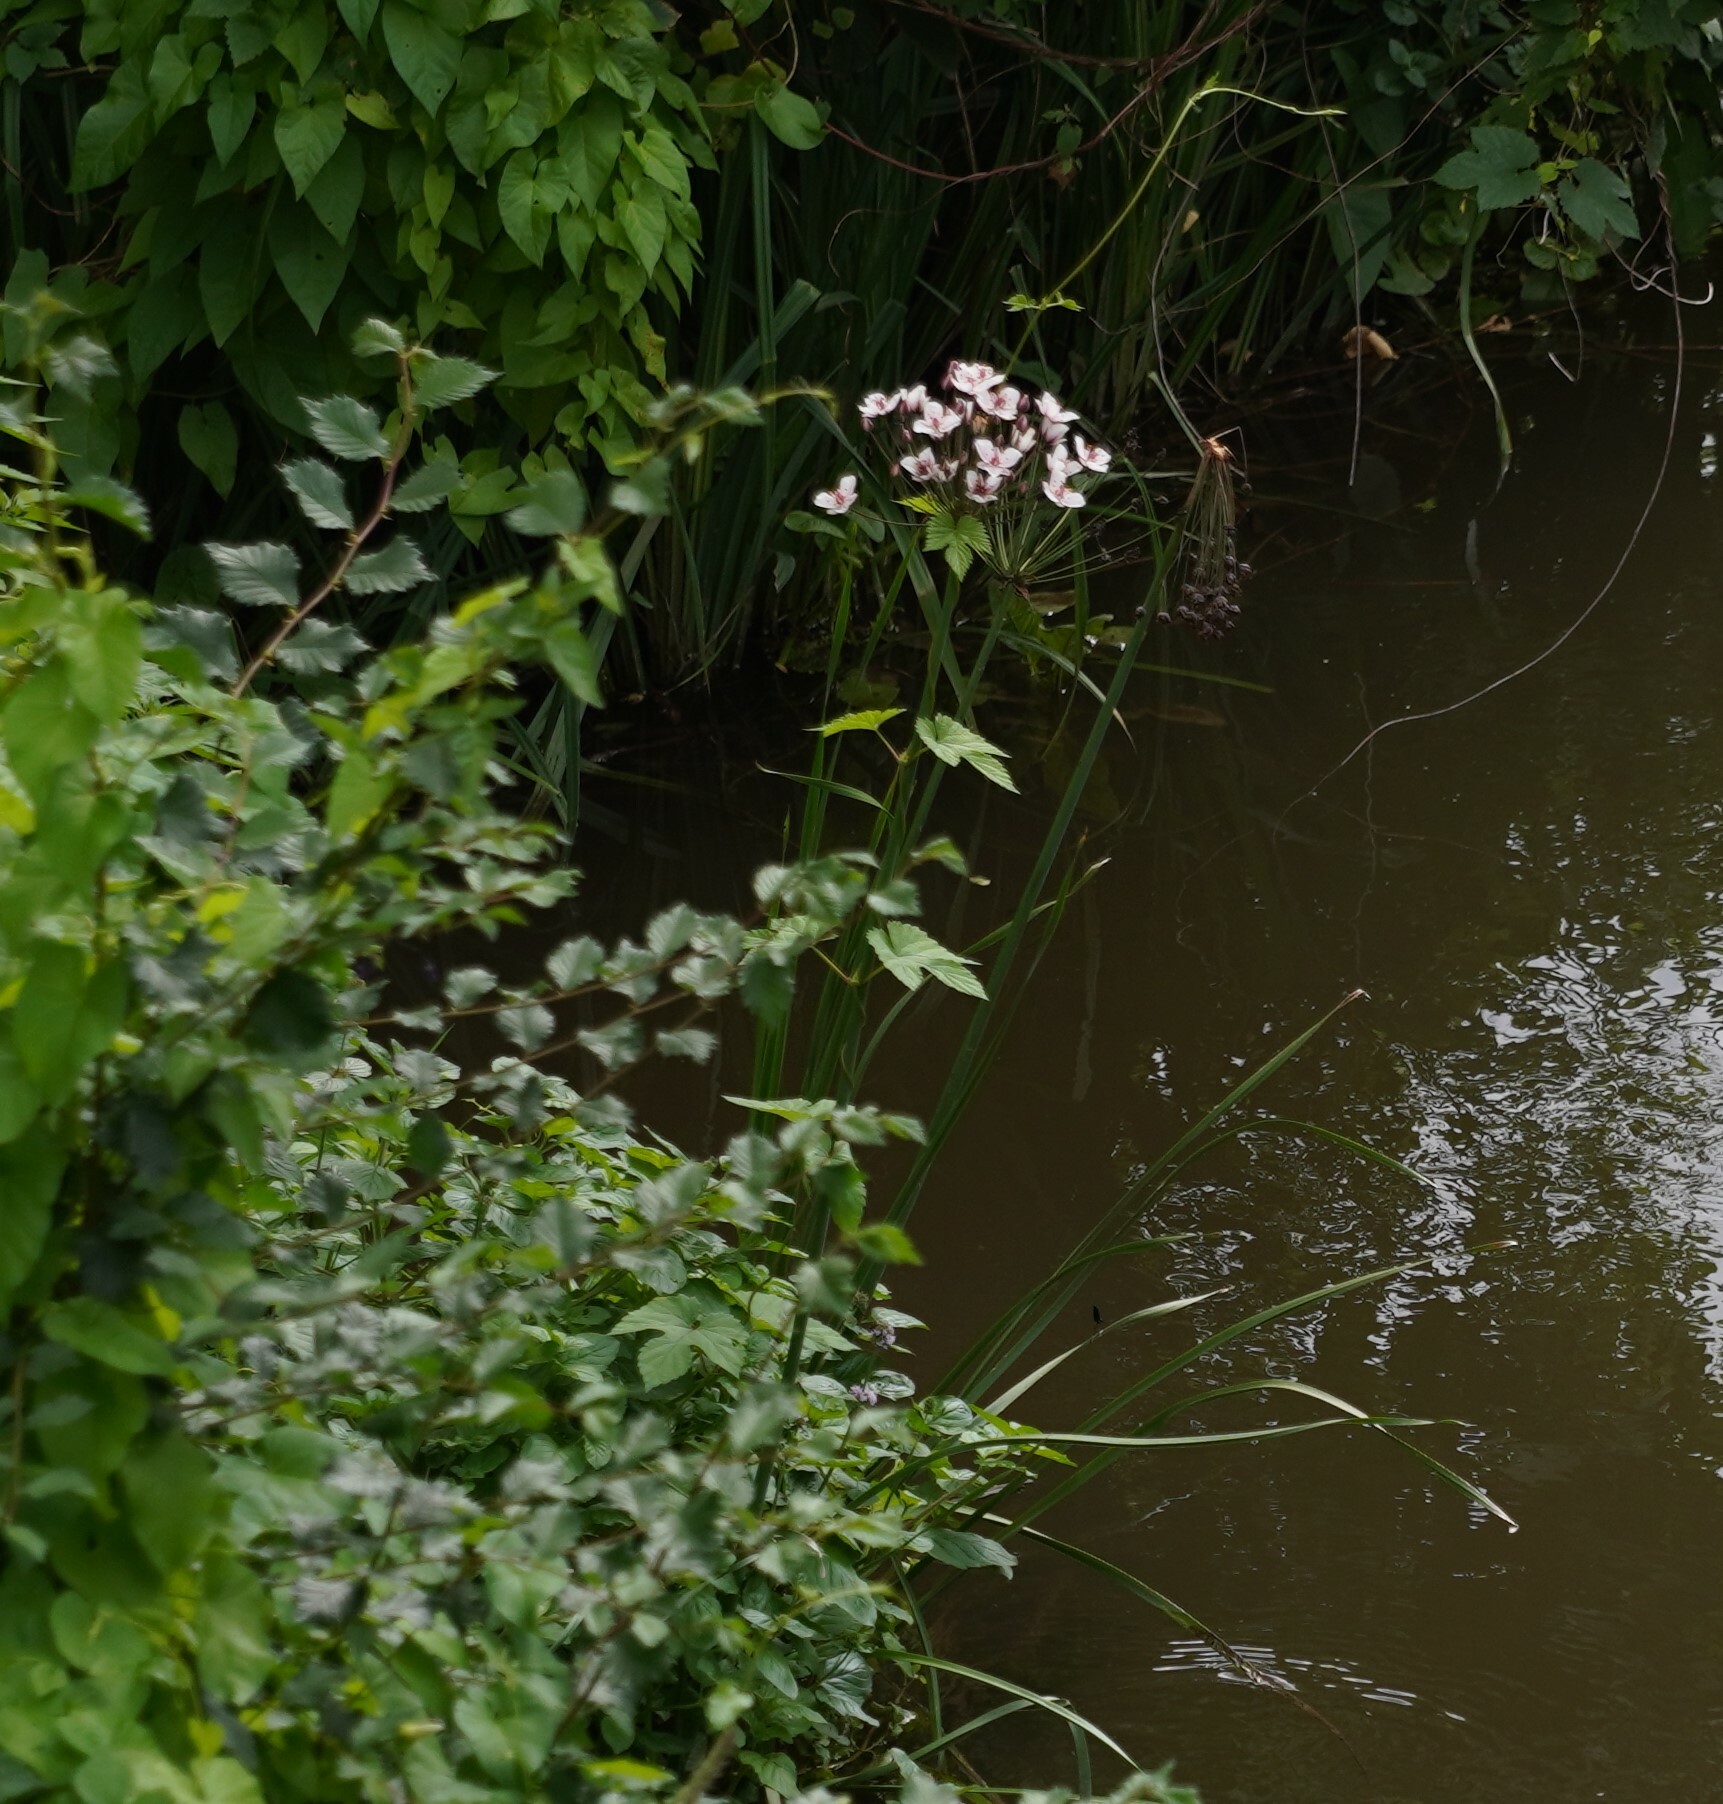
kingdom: Plantae
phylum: Tracheophyta
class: Liliopsida
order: Alismatales
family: Butomaceae
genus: Butomus
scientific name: Butomus umbellatus
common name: Flowering-rush
